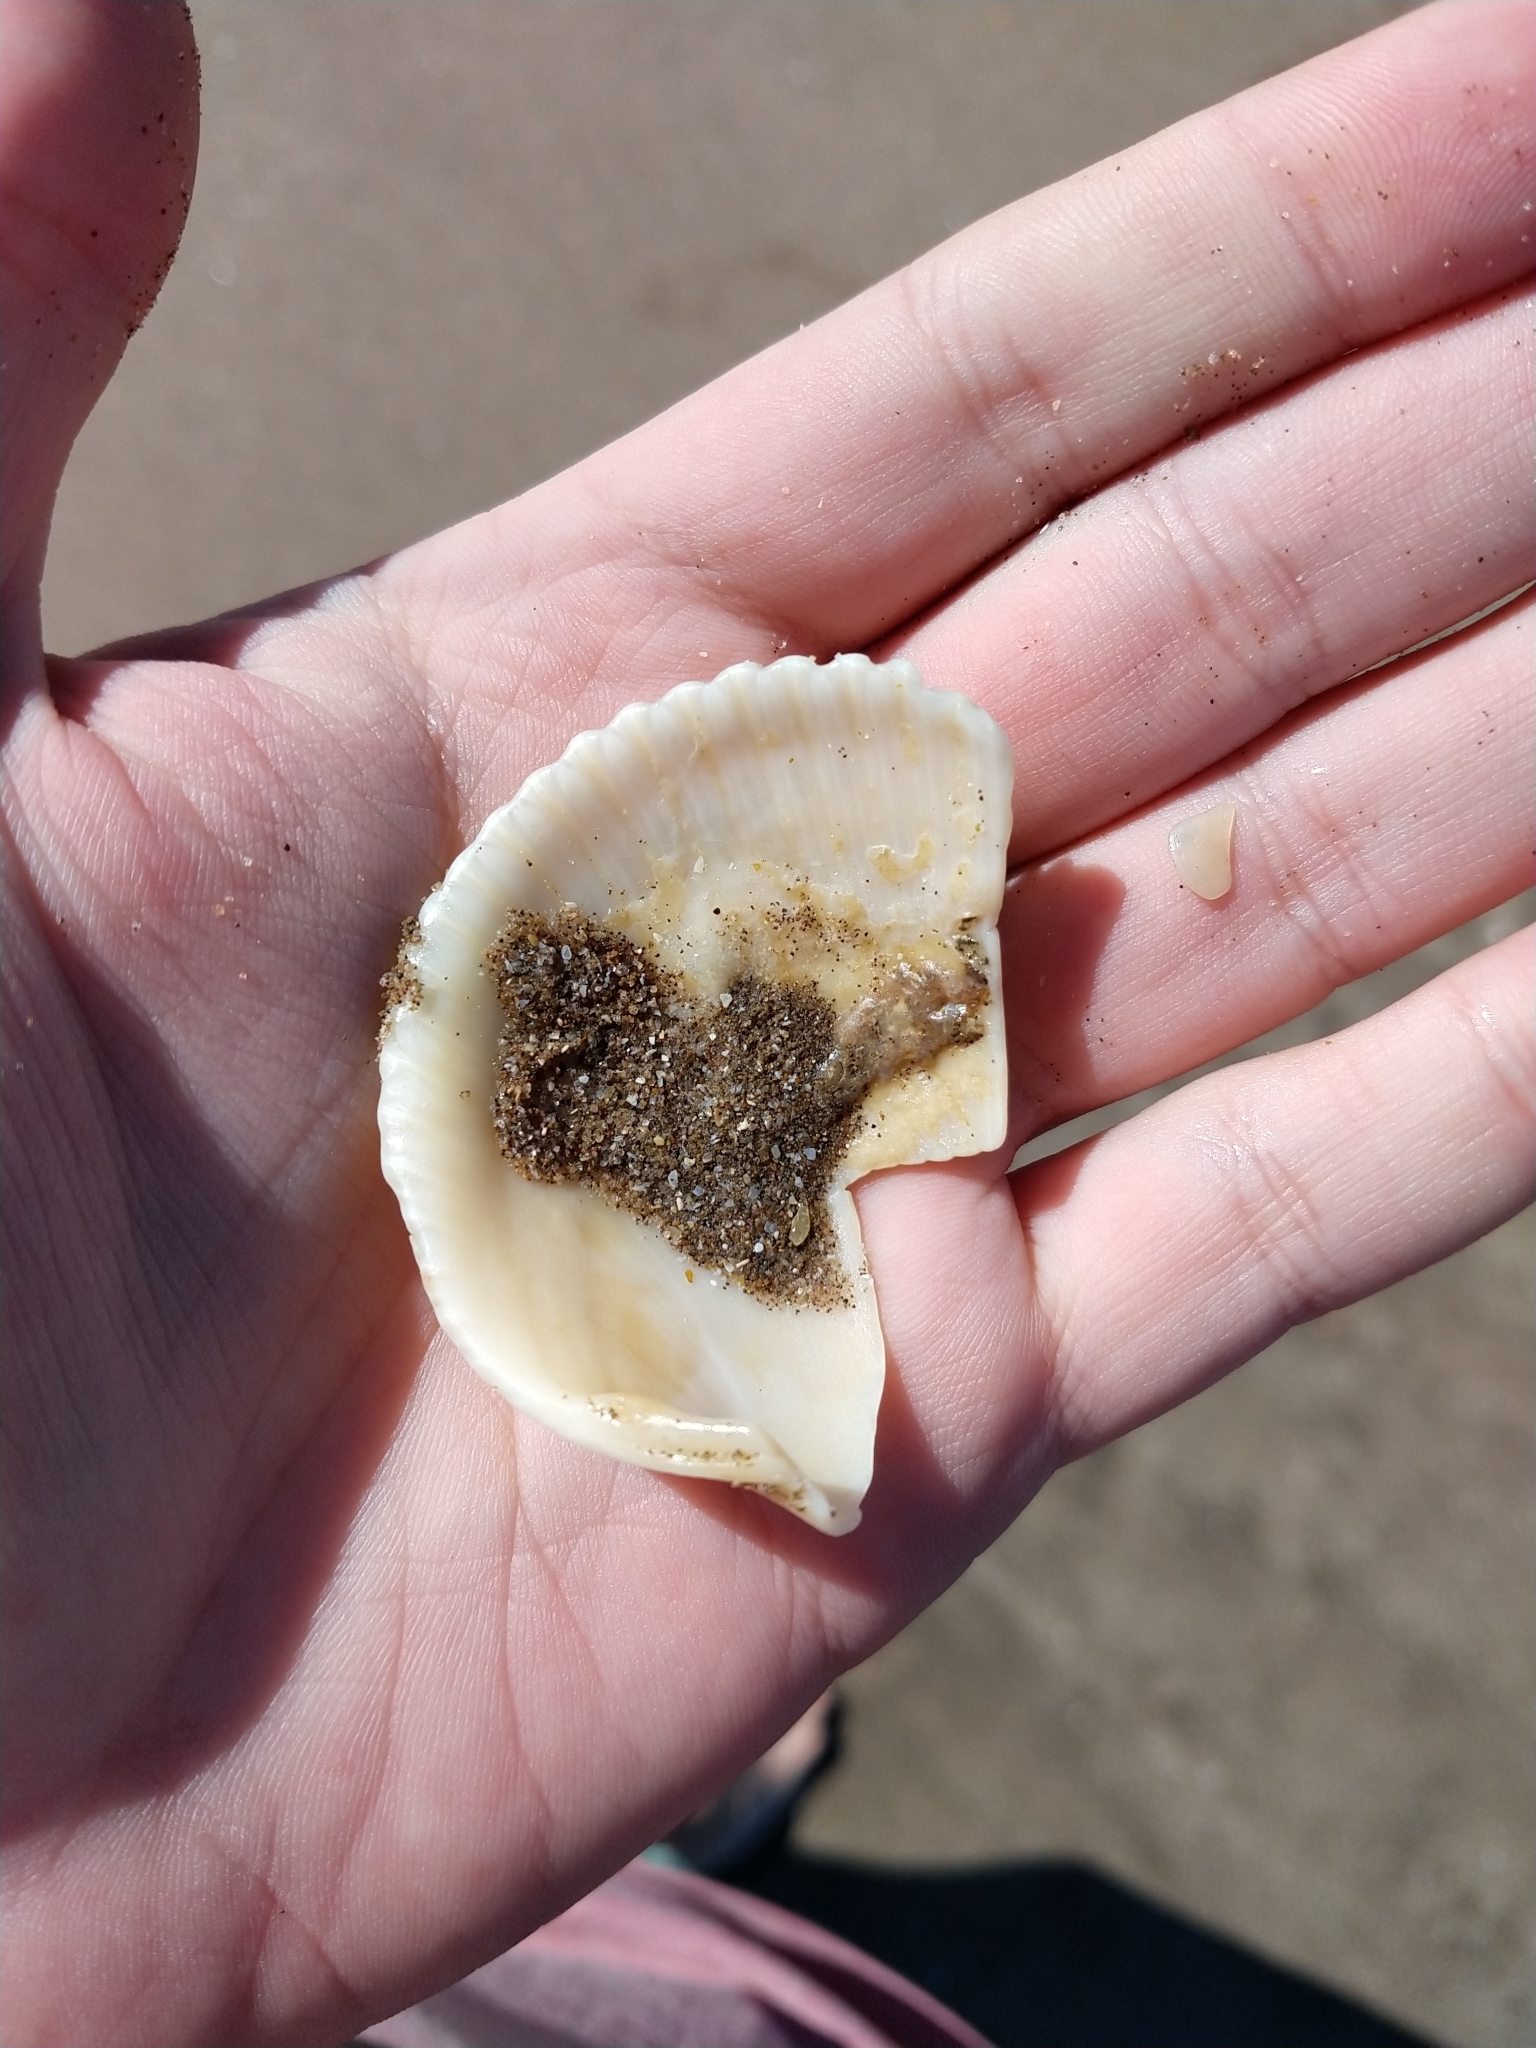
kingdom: Animalia
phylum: Mollusca
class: Bivalvia
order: Cardiida
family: Cardiidae
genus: Dallocardia
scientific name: Dallocardia delicatula
